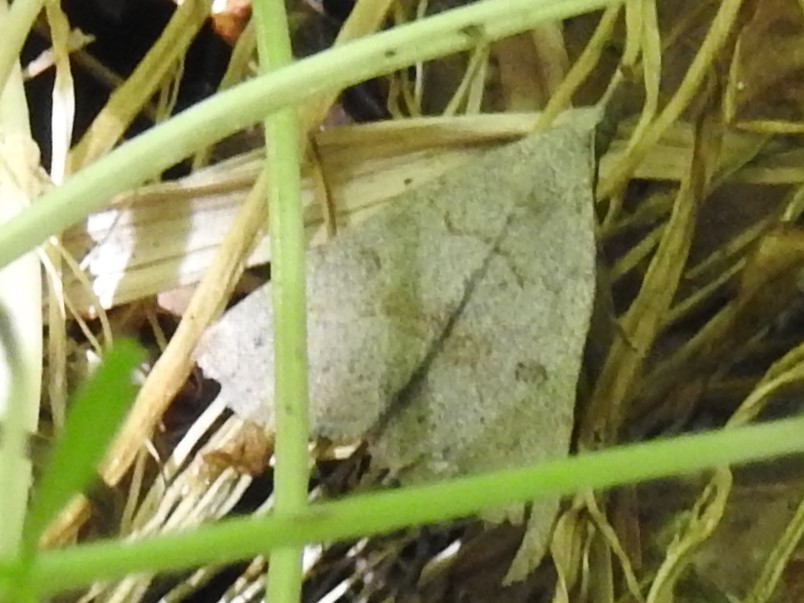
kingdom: Animalia
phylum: Arthropoda
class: Insecta
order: Lepidoptera
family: Erebidae
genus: Macrochilo
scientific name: Macrochilo morbidalis
